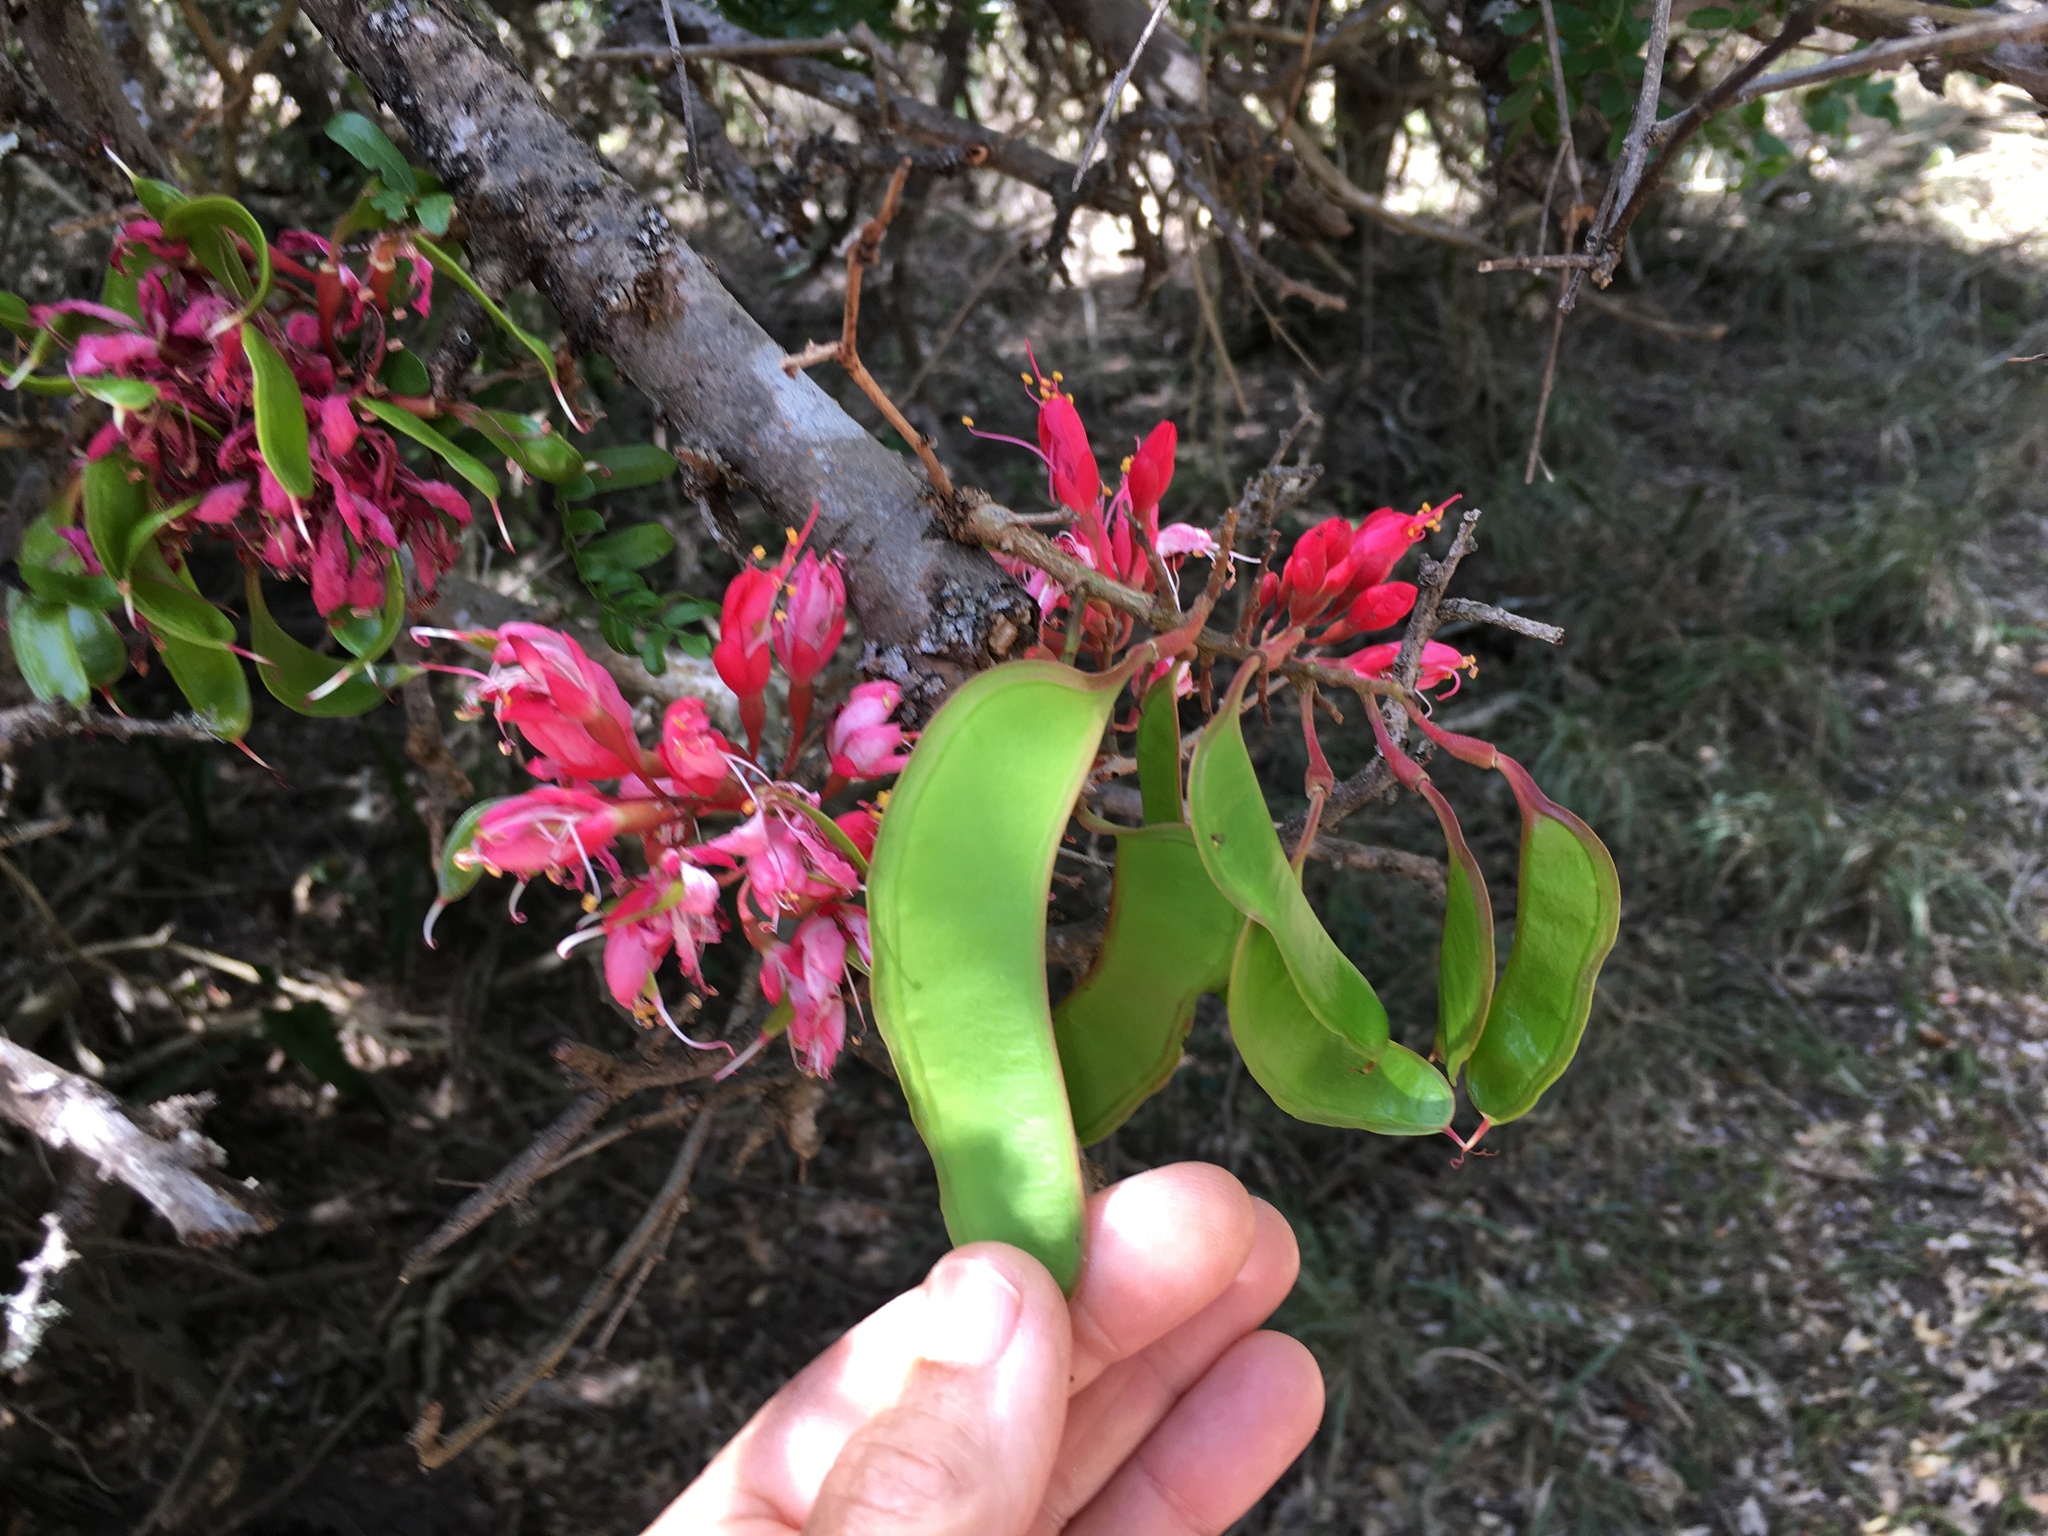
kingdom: Plantae
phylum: Tracheophyta
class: Magnoliopsida
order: Fabales
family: Fabaceae
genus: Schotia
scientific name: Schotia afra
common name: Hottentot's bean
